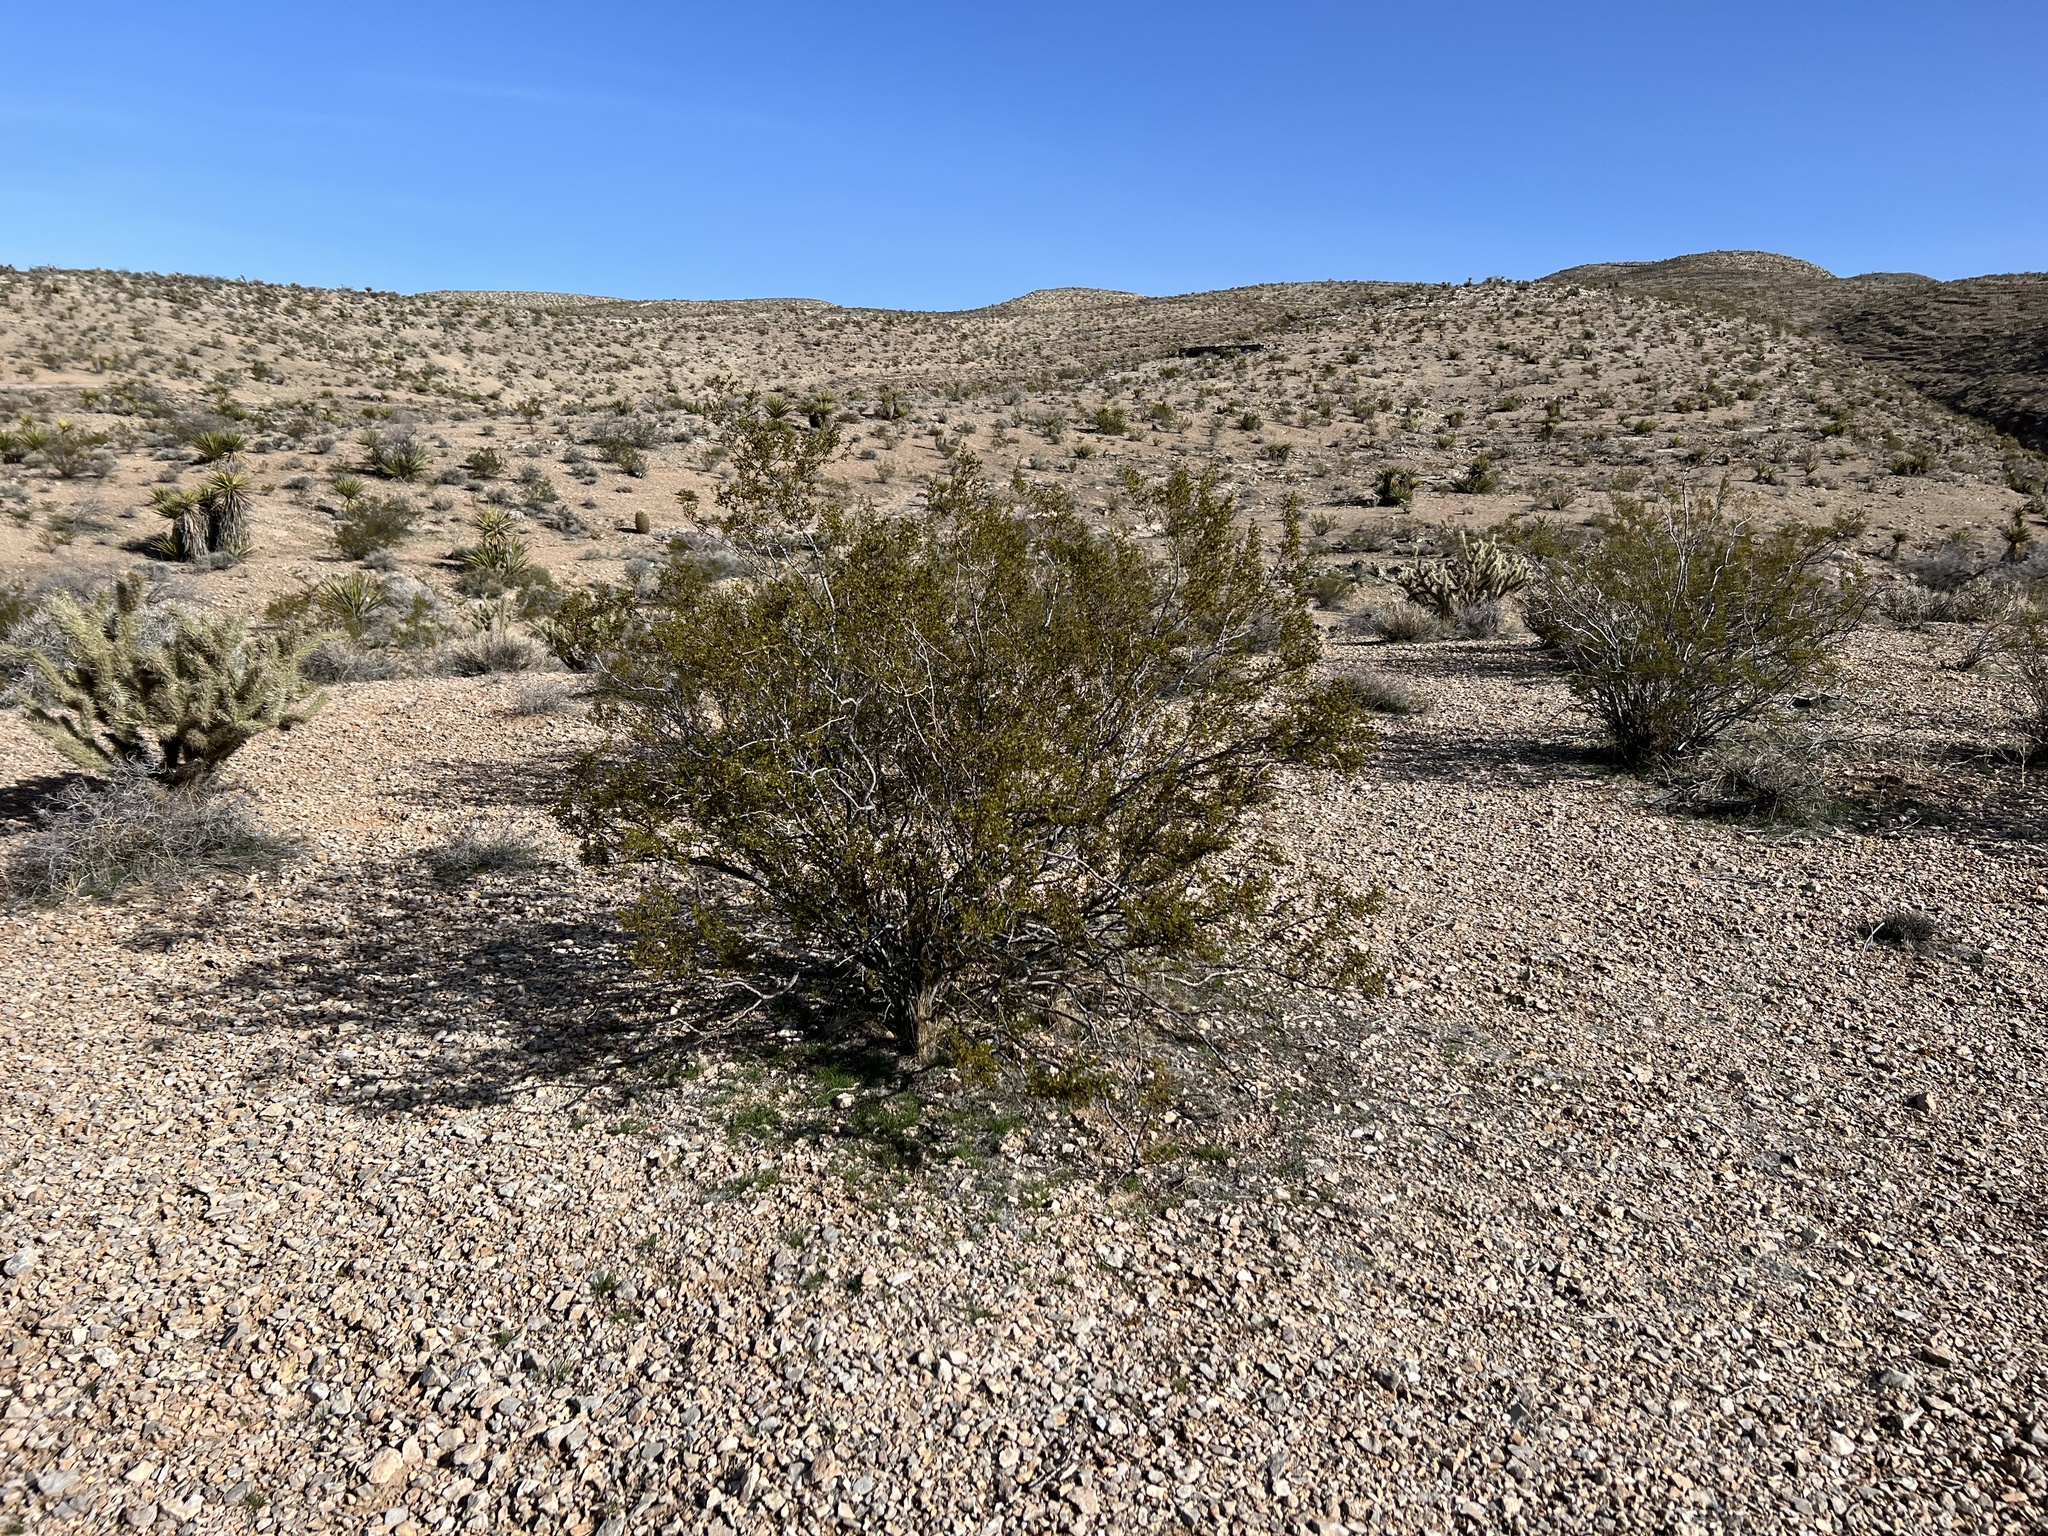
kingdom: Plantae
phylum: Tracheophyta
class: Magnoliopsida
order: Zygophyllales
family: Zygophyllaceae
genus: Larrea
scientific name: Larrea tridentata
